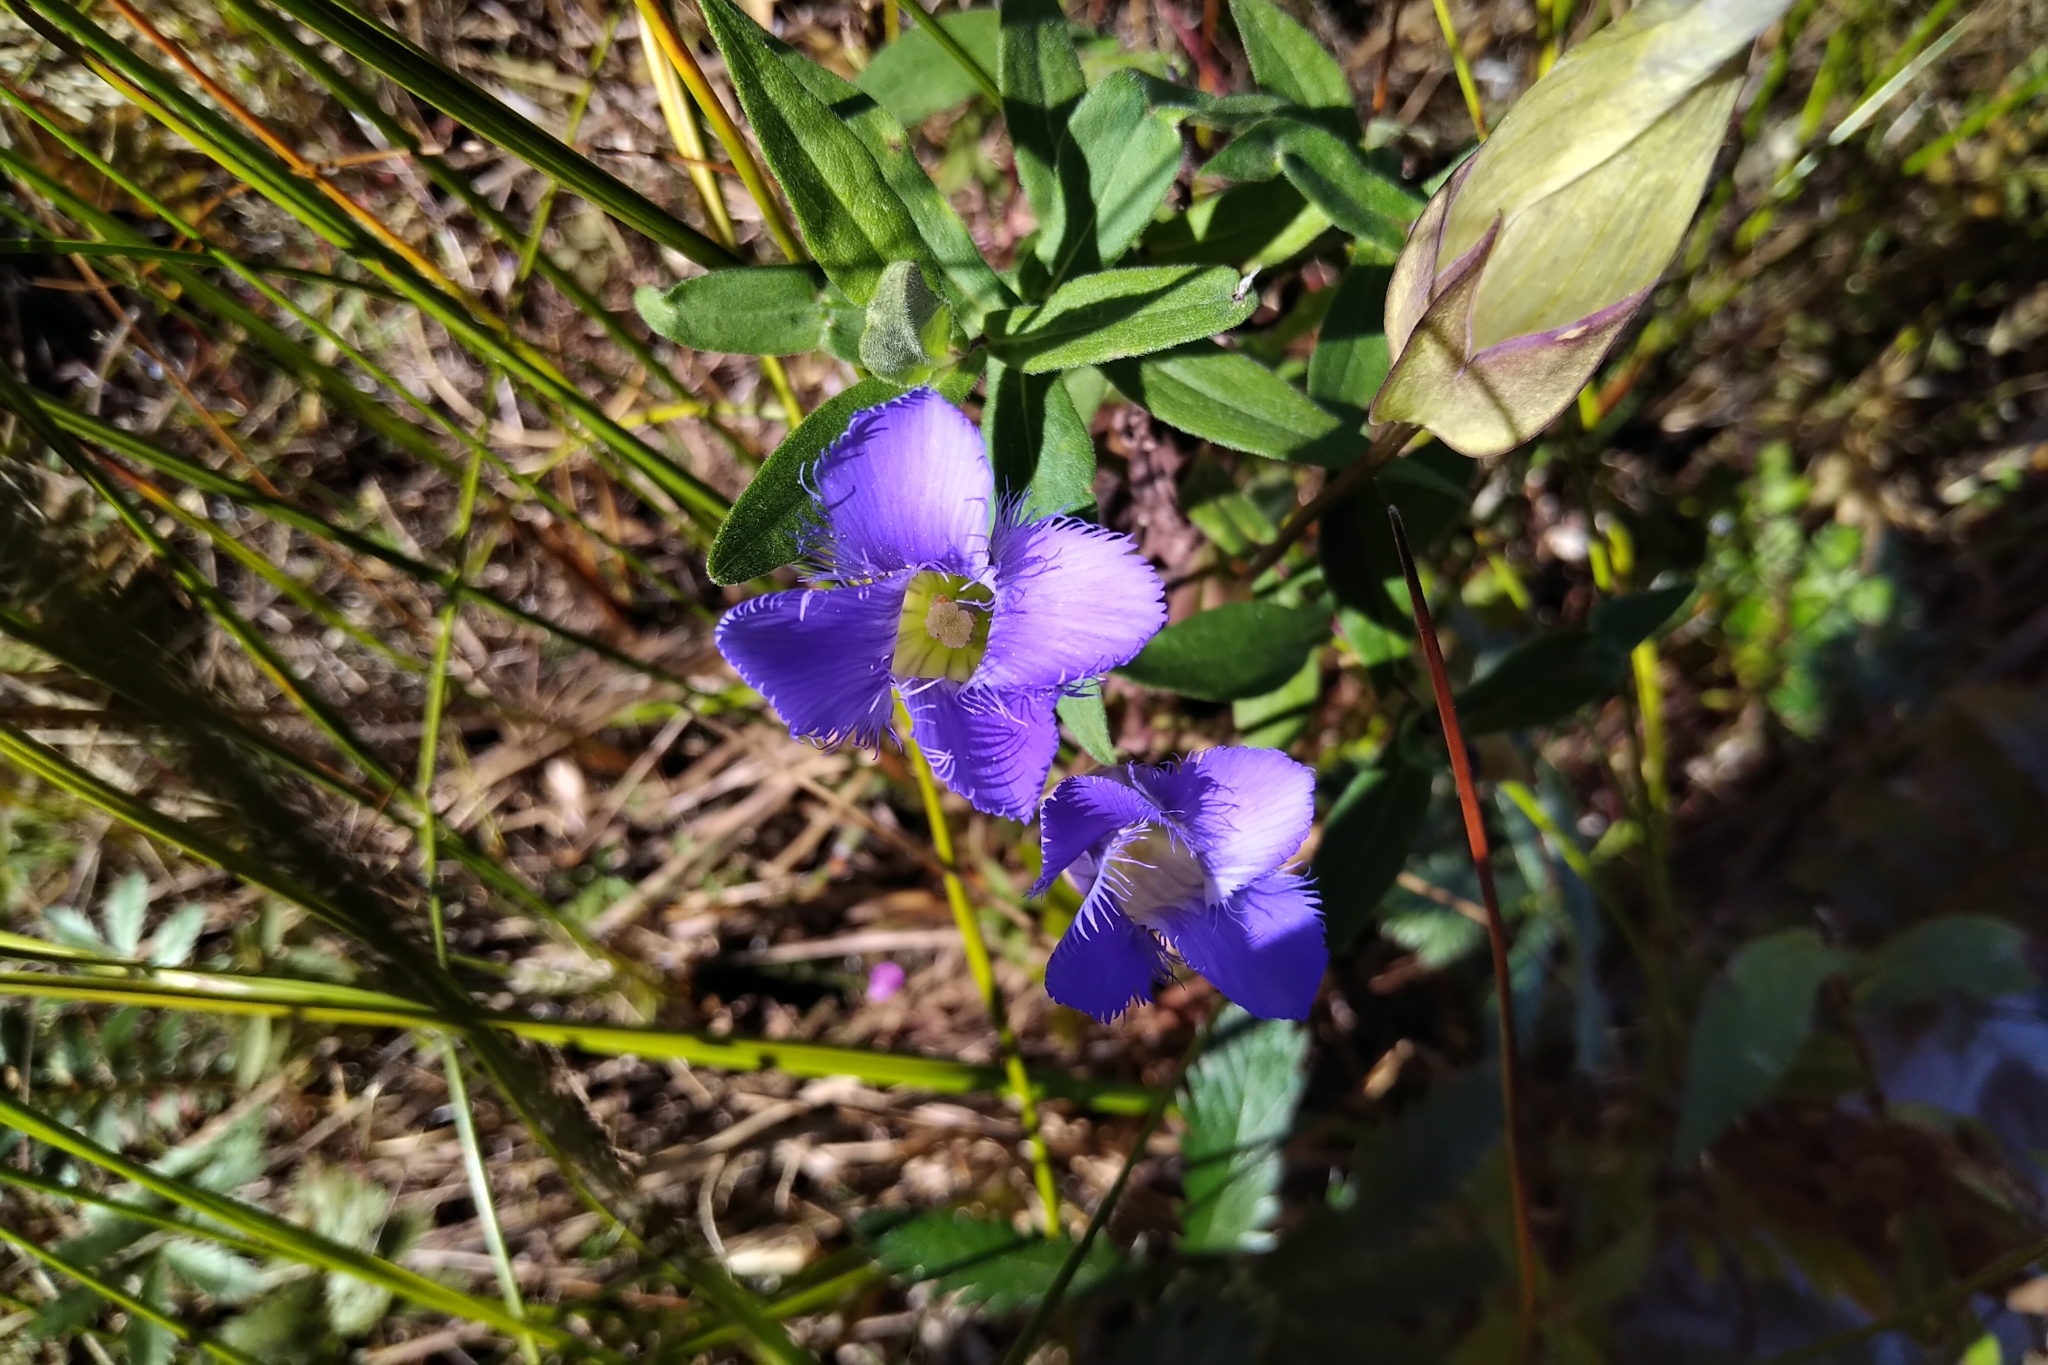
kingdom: Plantae
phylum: Tracheophyta
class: Magnoliopsida
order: Gentianales
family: Gentianaceae
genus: Gentianopsis
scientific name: Gentianopsis crinita
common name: Fringed-gentian
